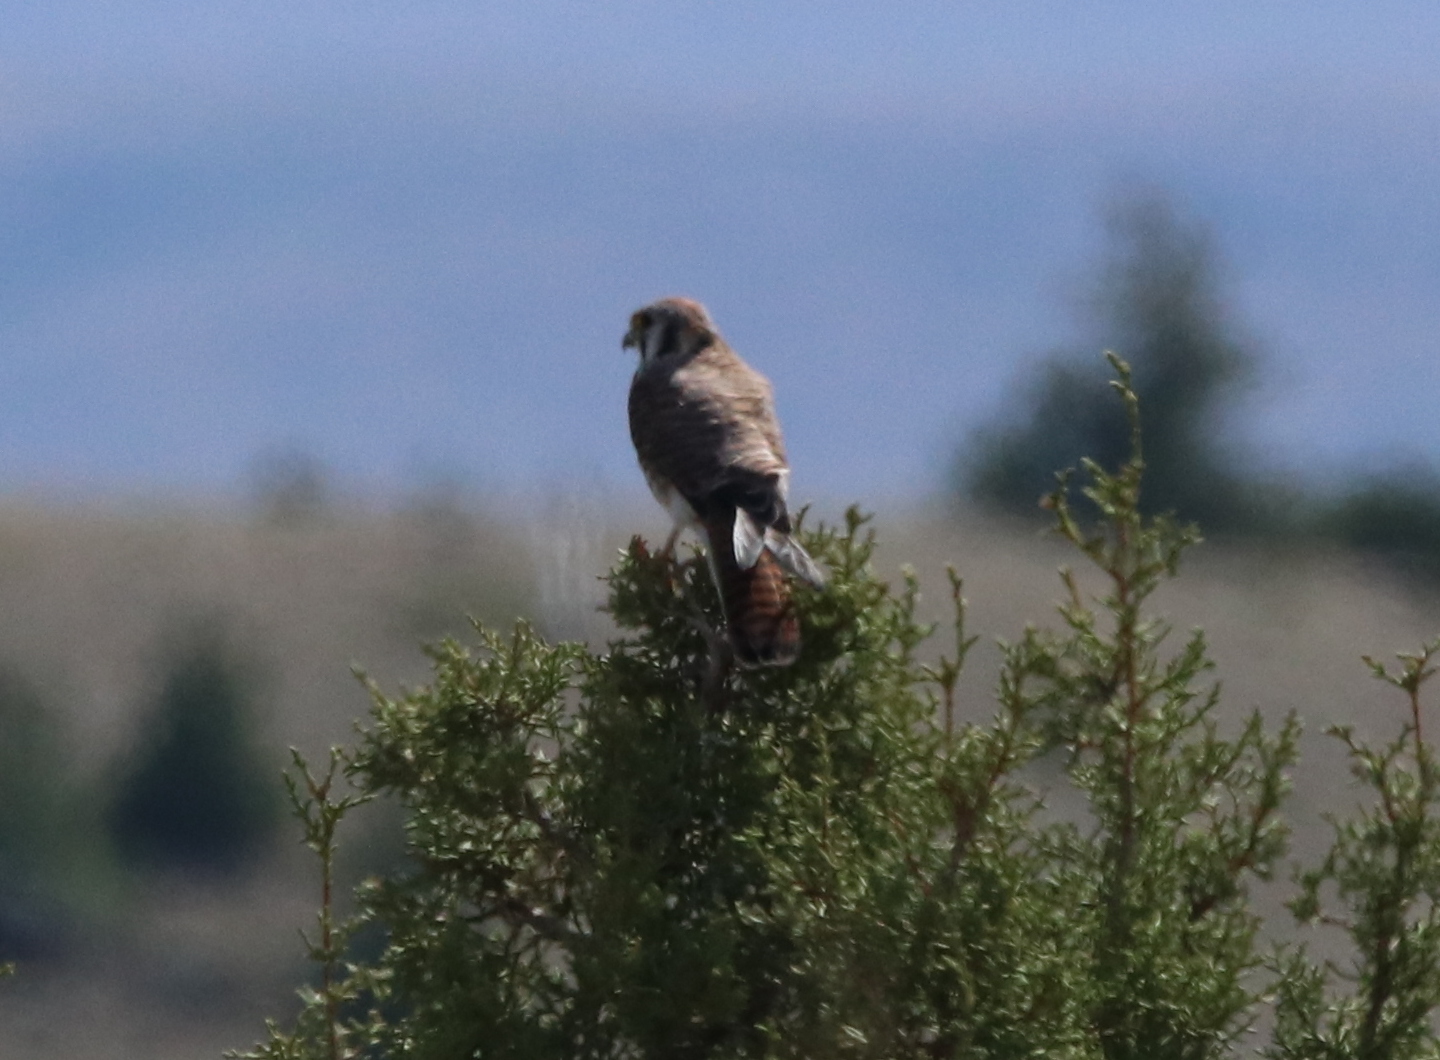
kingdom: Animalia
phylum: Chordata
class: Aves
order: Falconiformes
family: Falconidae
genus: Falco
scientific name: Falco sparverius
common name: American kestrel
